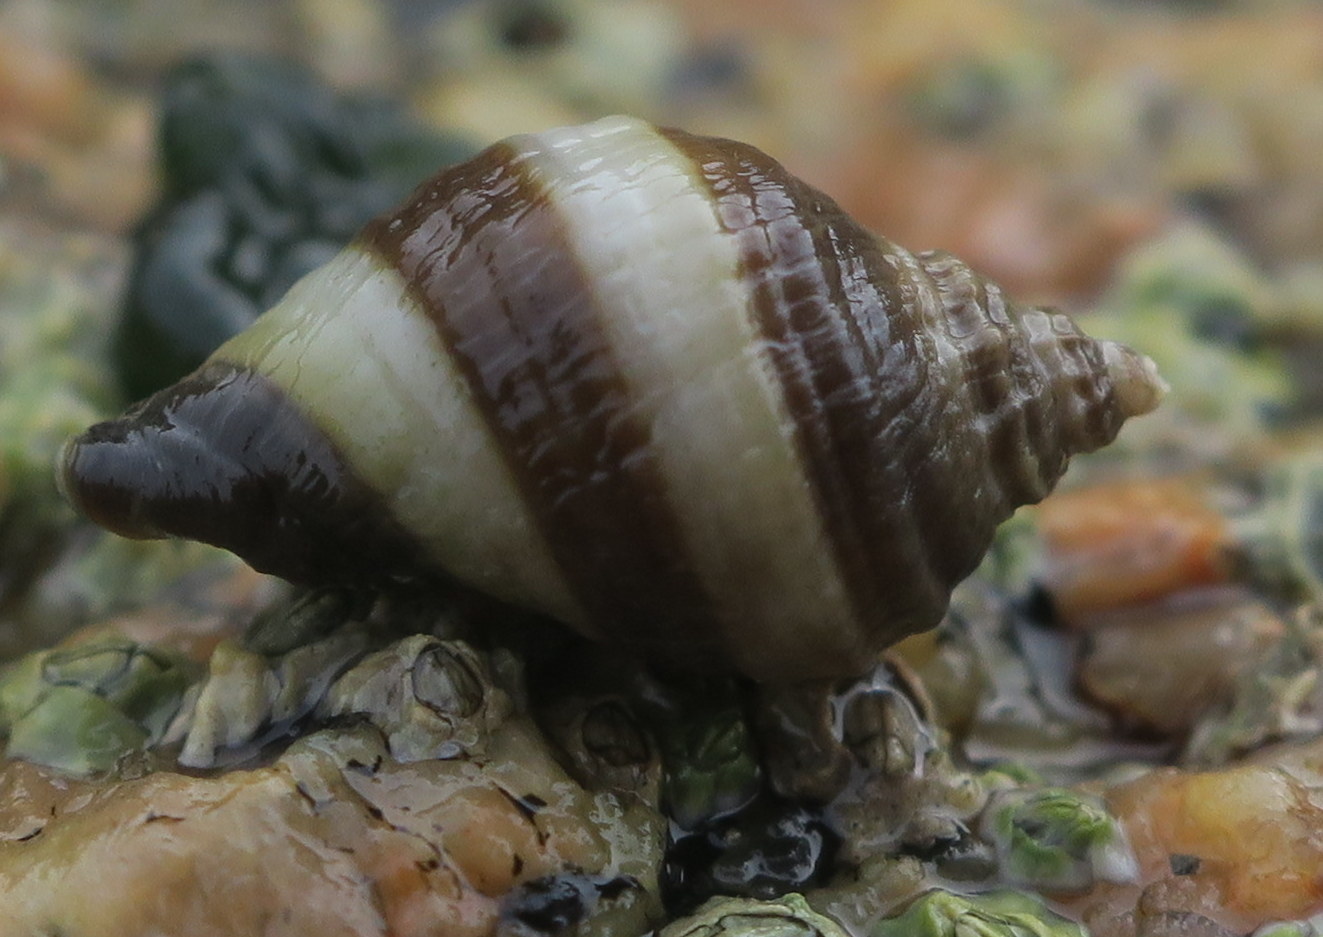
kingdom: Animalia
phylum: Mollusca
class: Gastropoda
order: Neogastropoda
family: Muricidae
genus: Nucella
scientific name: Nucella lapillus
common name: Dog whelk
